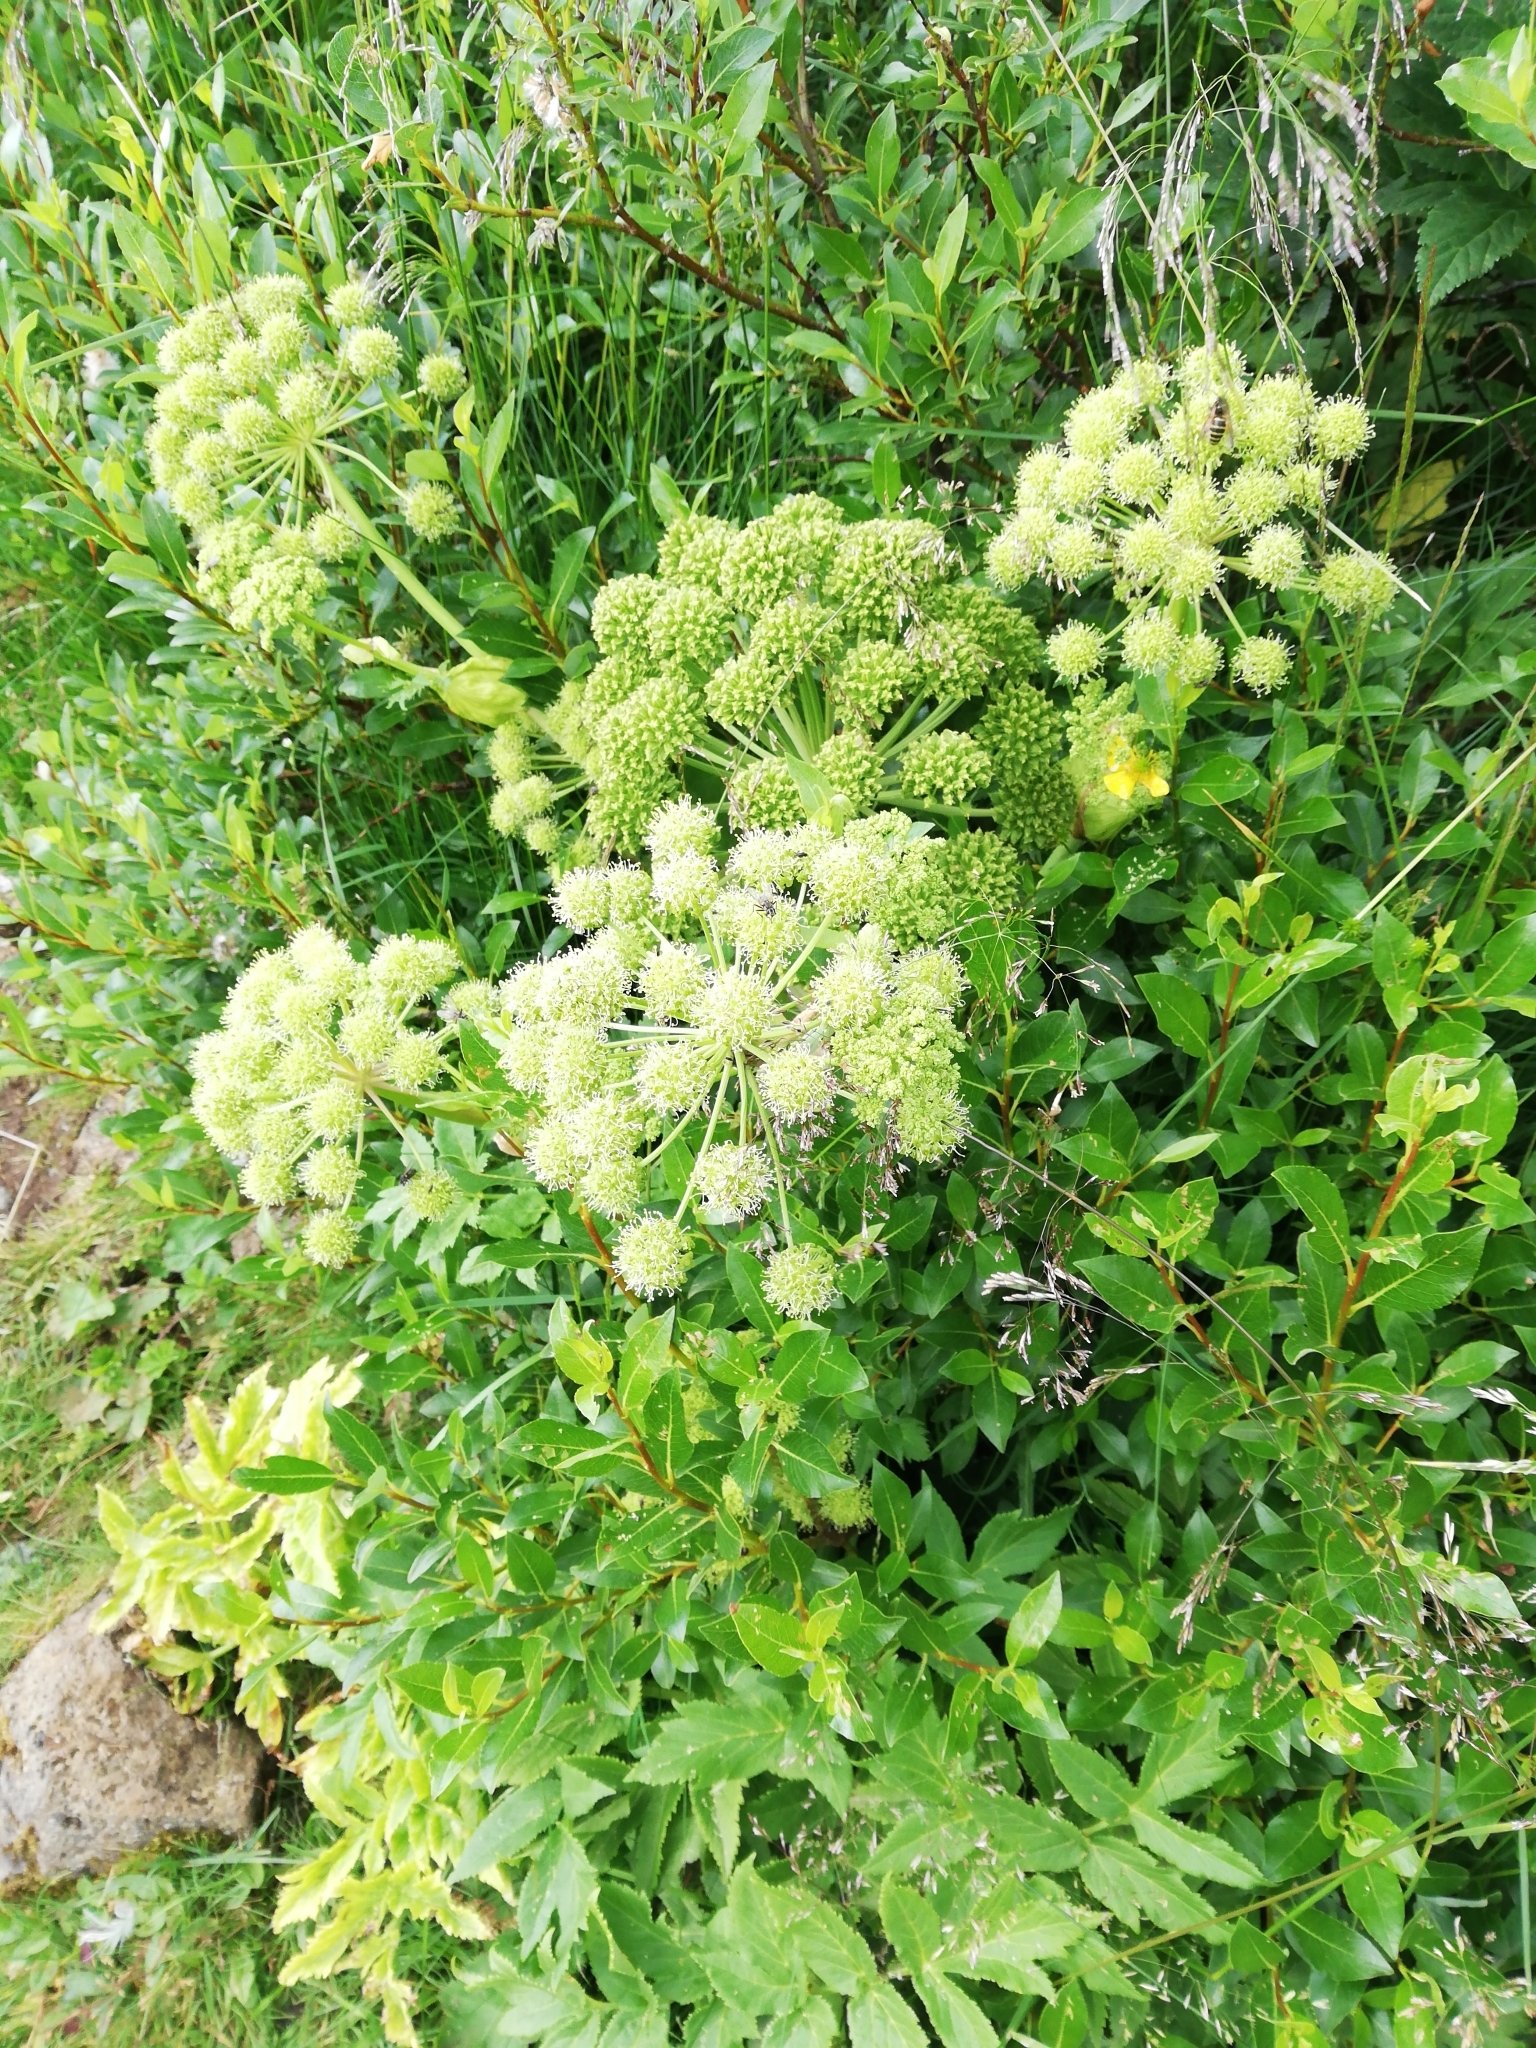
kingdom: Plantae
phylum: Tracheophyta
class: Magnoliopsida
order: Apiales
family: Apiaceae
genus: Angelica
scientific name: Angelica archangelica
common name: Garden angelica
